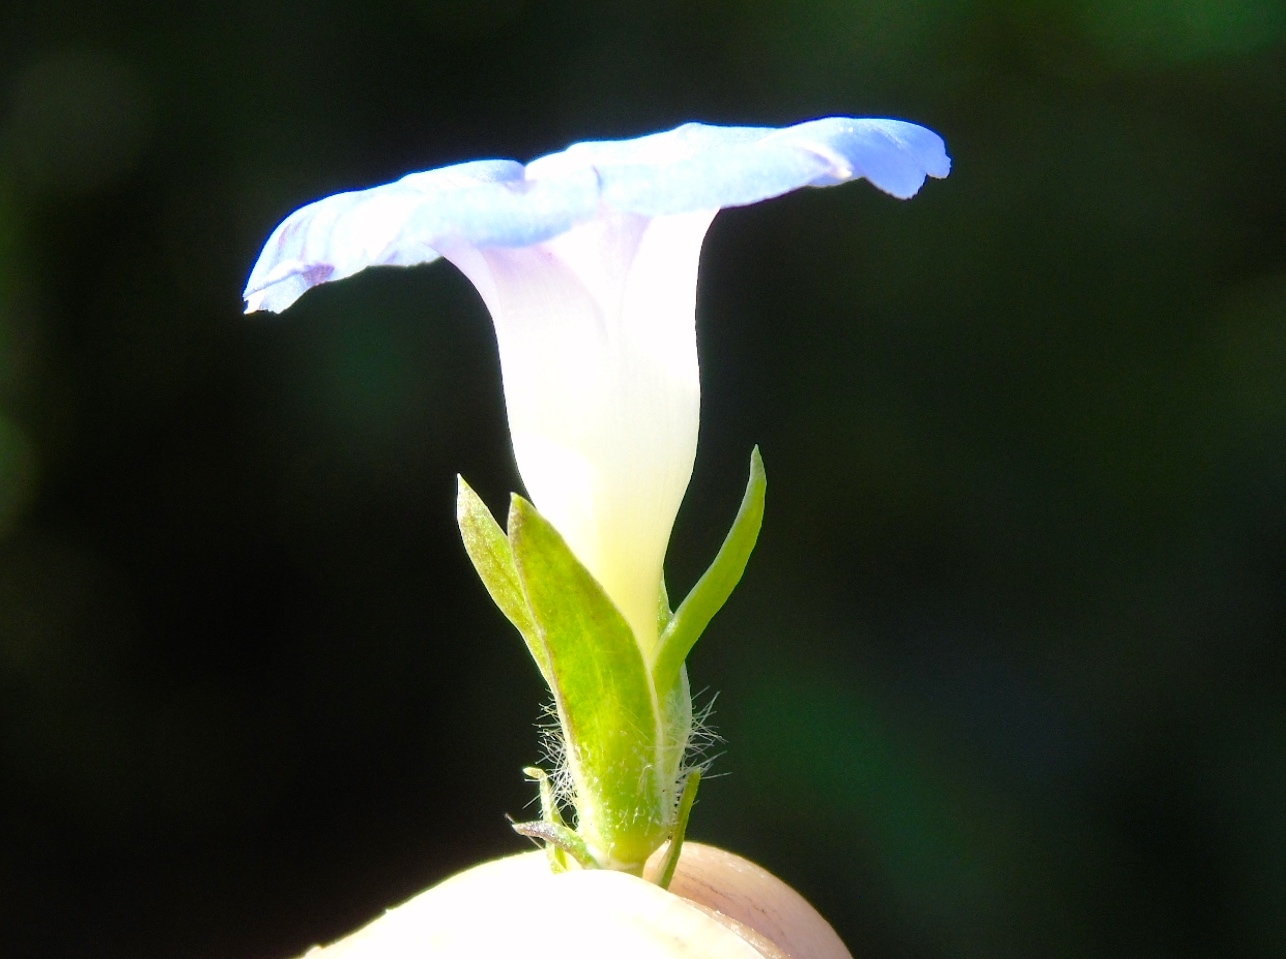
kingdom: Plantae
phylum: Tracheophyta
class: Magnoliopsida
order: Solanales
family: Convolvulaceae
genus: Ipomoea
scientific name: Ipomoea meyeri
